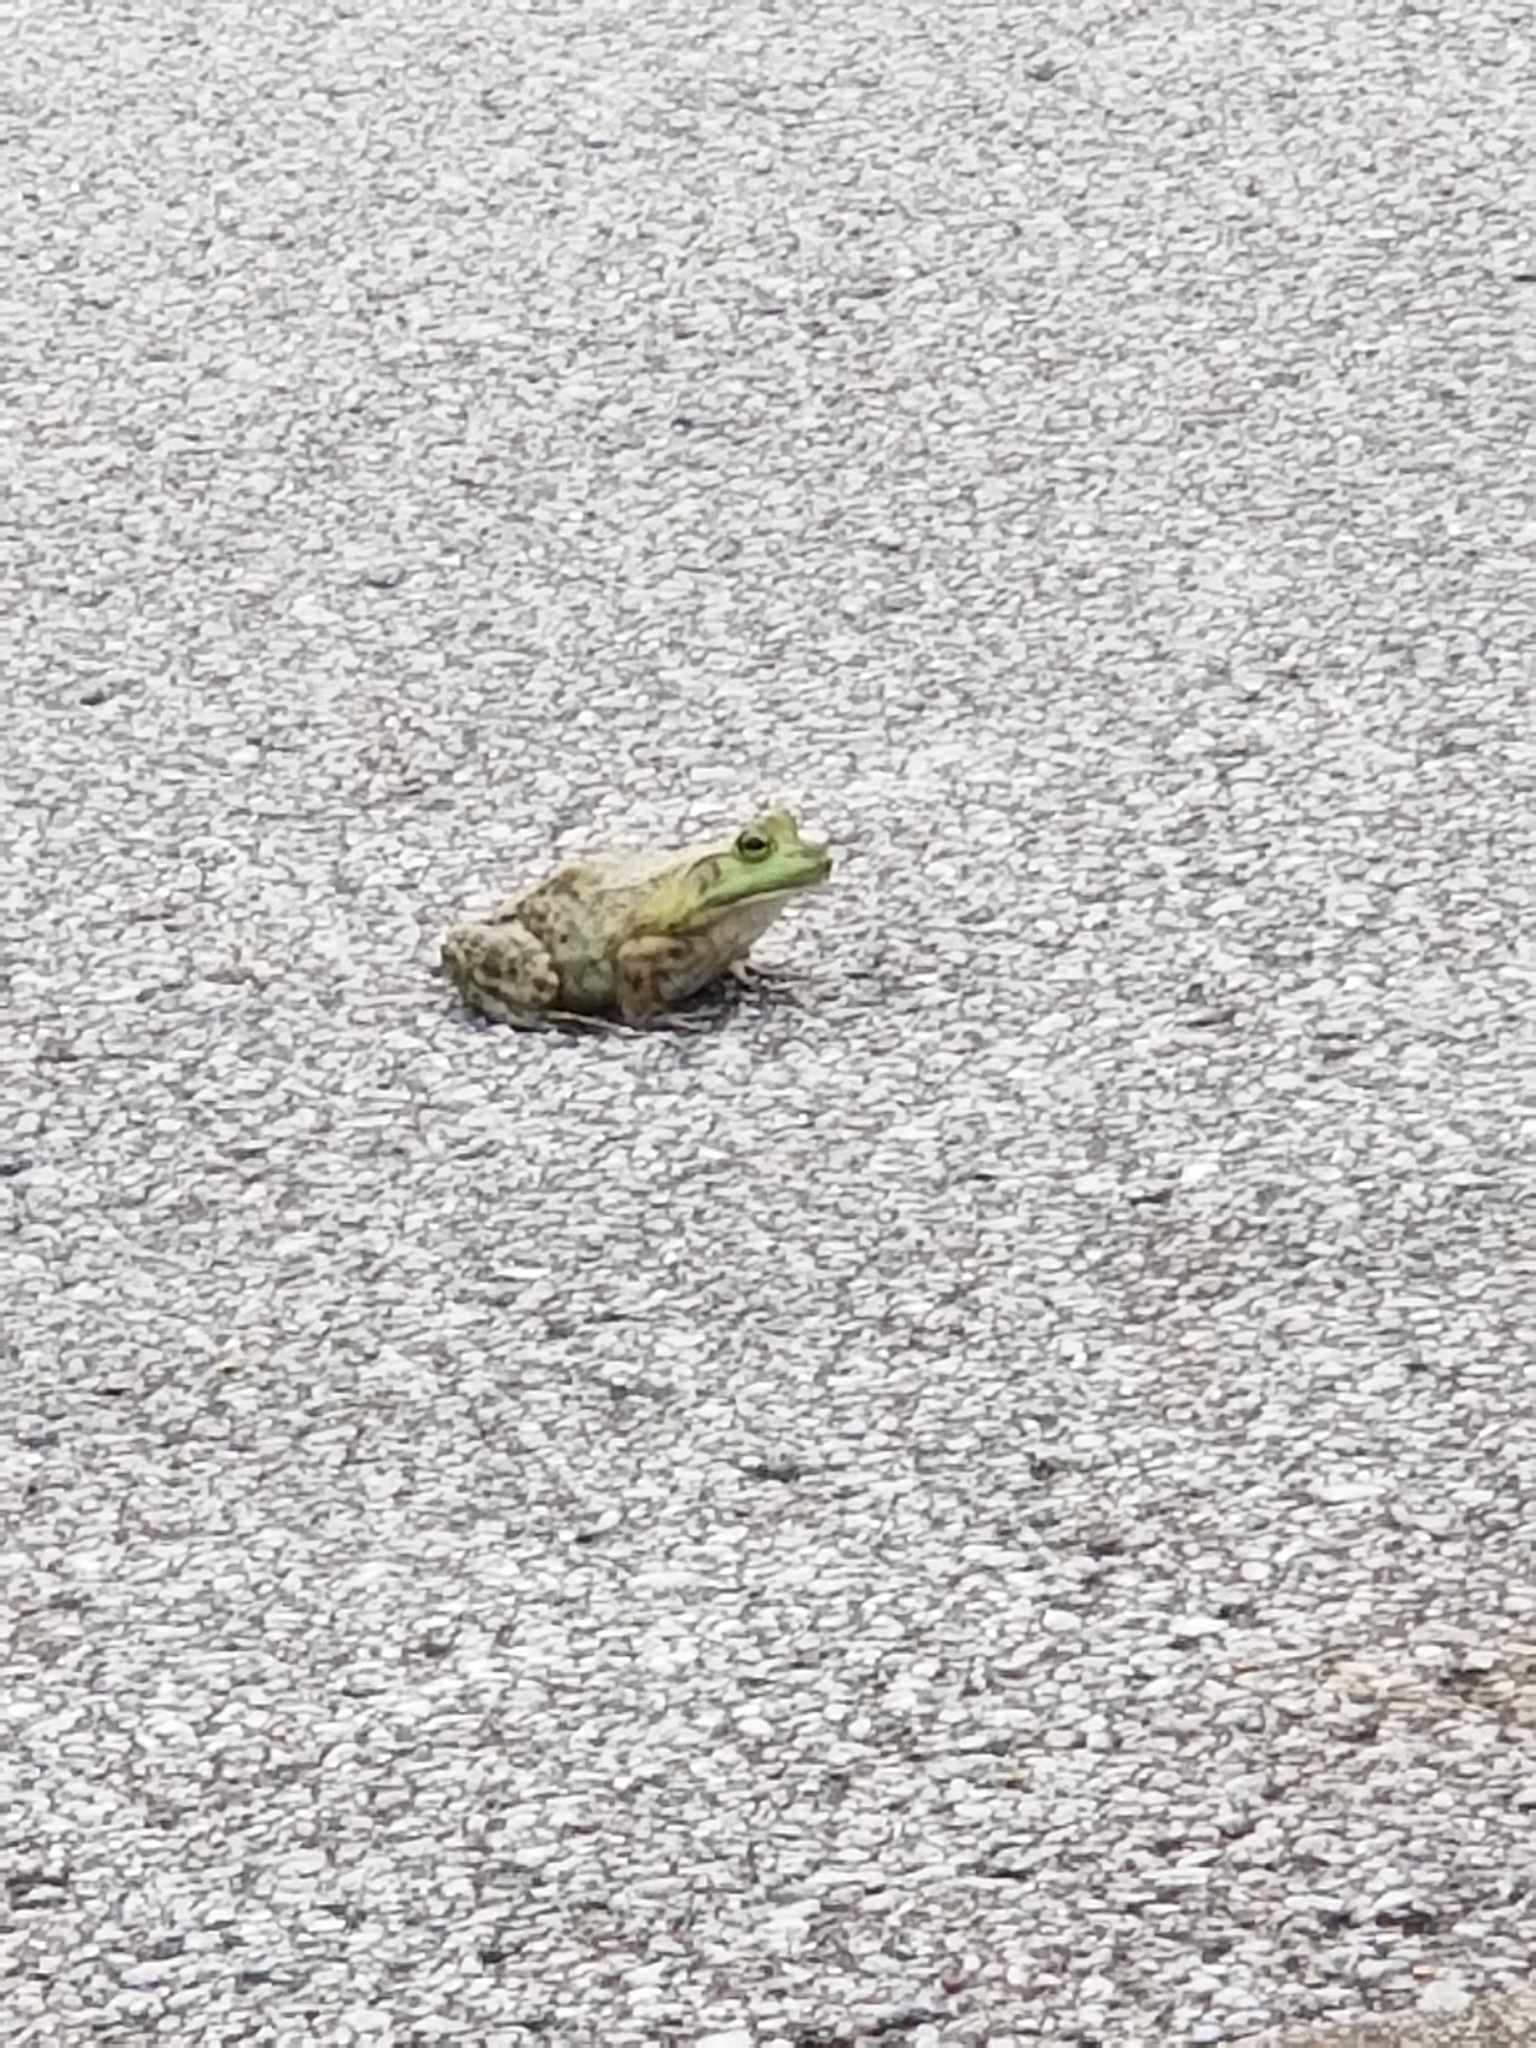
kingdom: Animalia
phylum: Chordata
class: Amphibia
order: Anura
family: Ranidae
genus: Lithobates
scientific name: Lithobates clamitans
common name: Green frog
